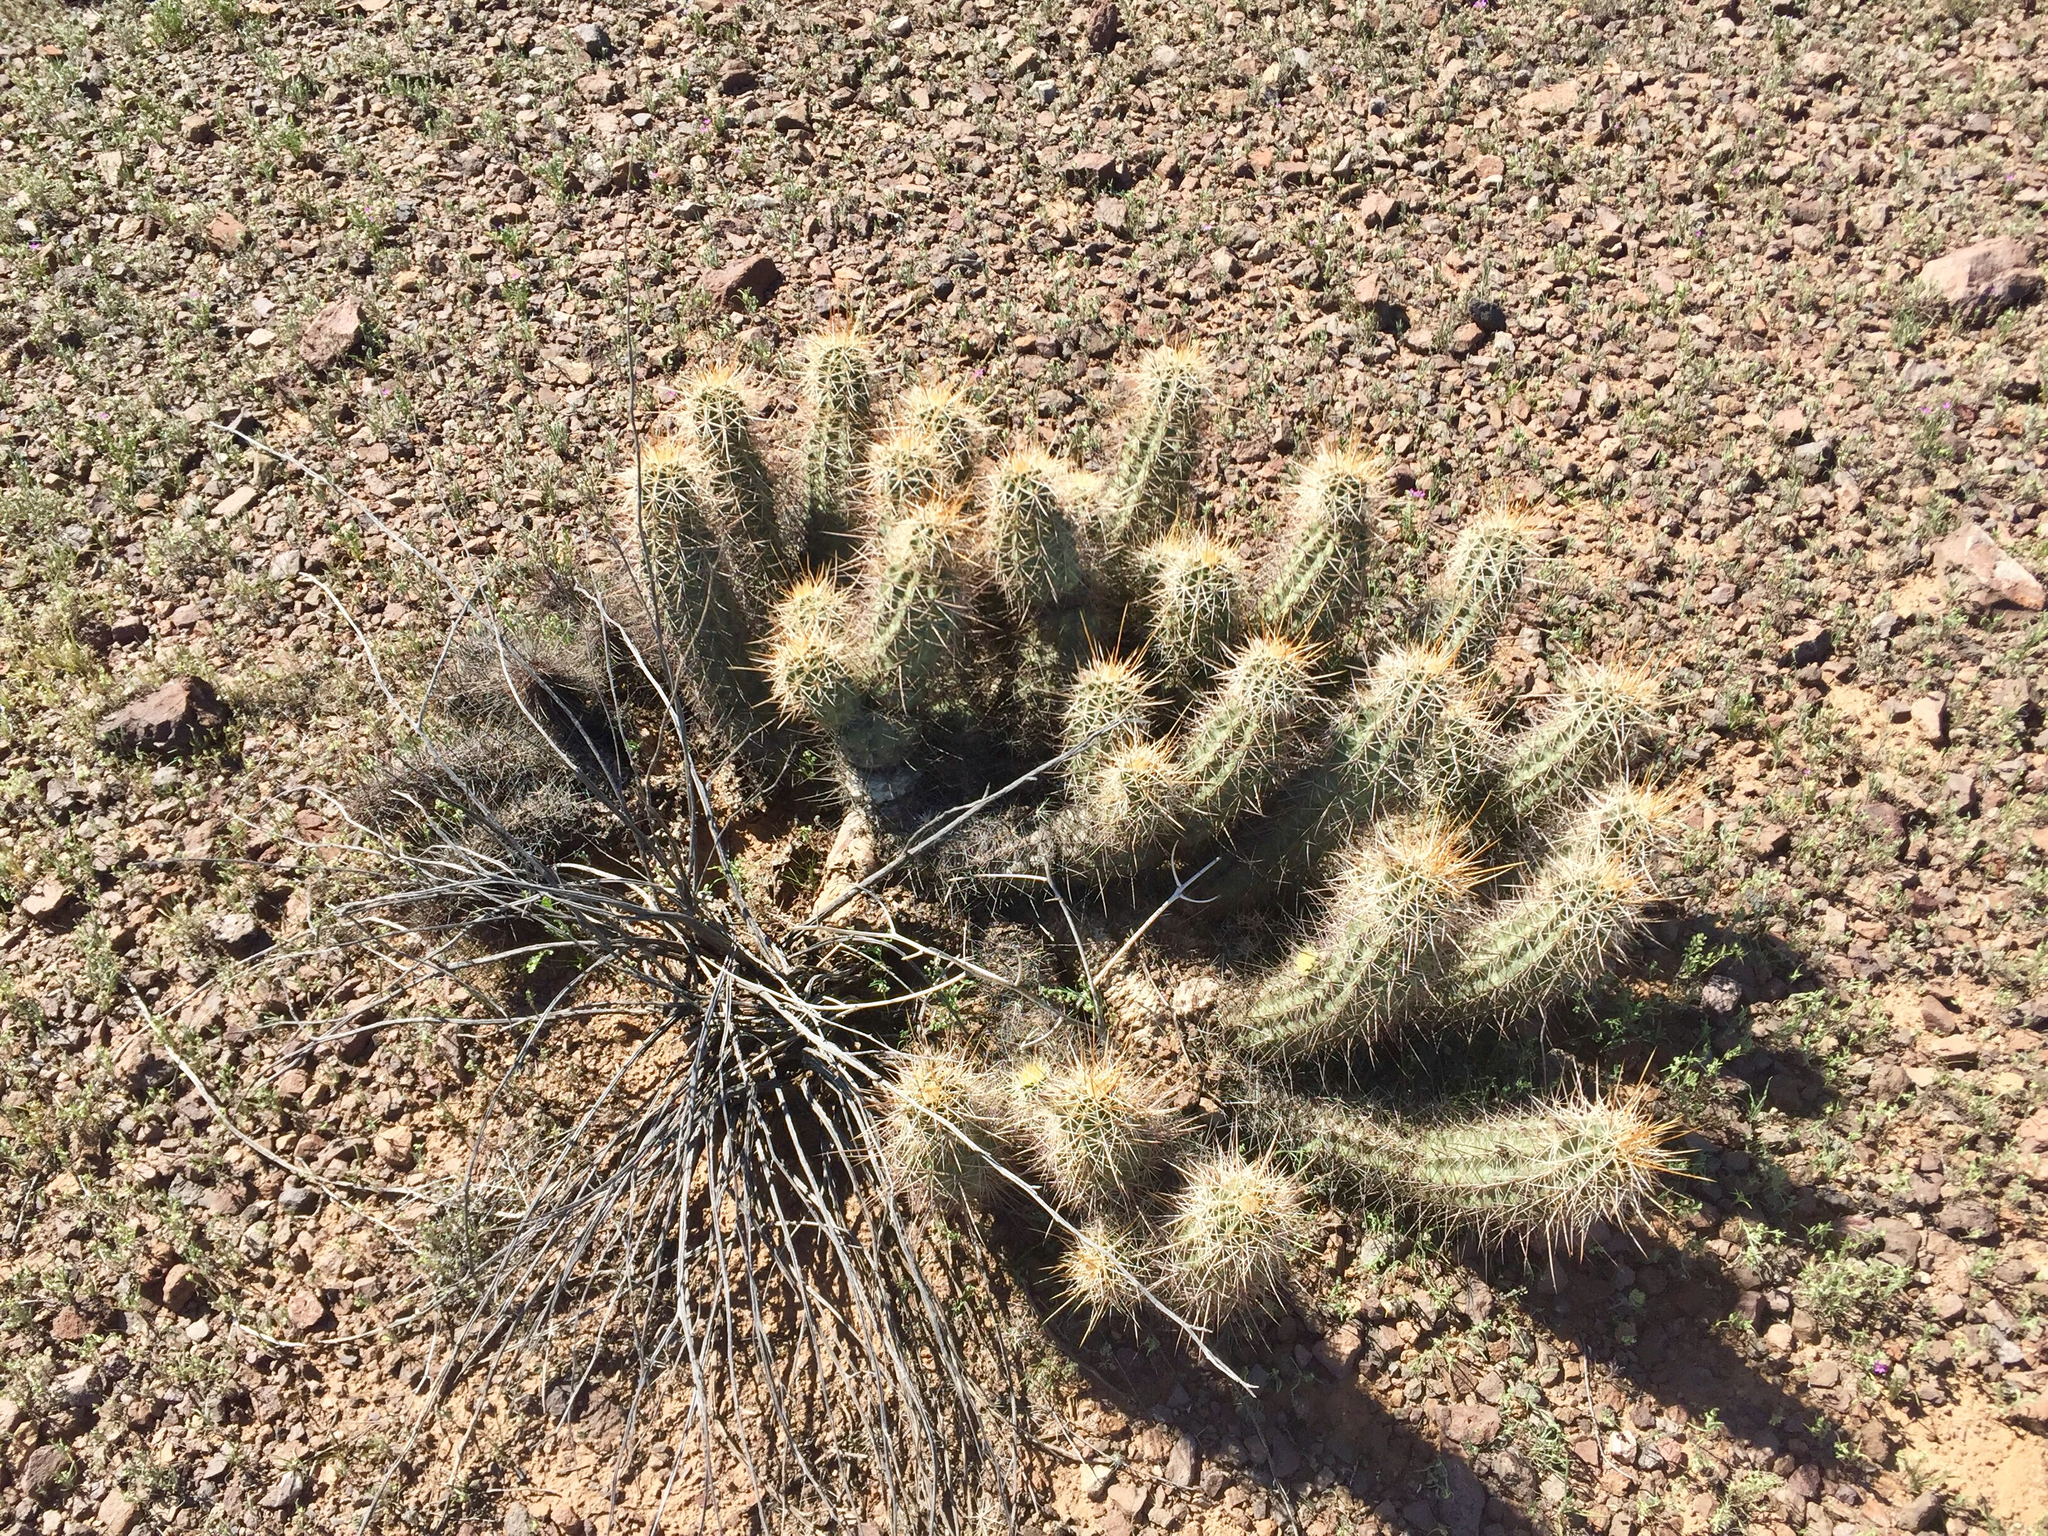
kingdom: Plantae
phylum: Tracheophyta
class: Magnoliopsida
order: Caryophyllales
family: Cactaceae
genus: Echinocereus
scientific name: Echinocereus engelmannii
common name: Engelmann's hedgehog cactus
